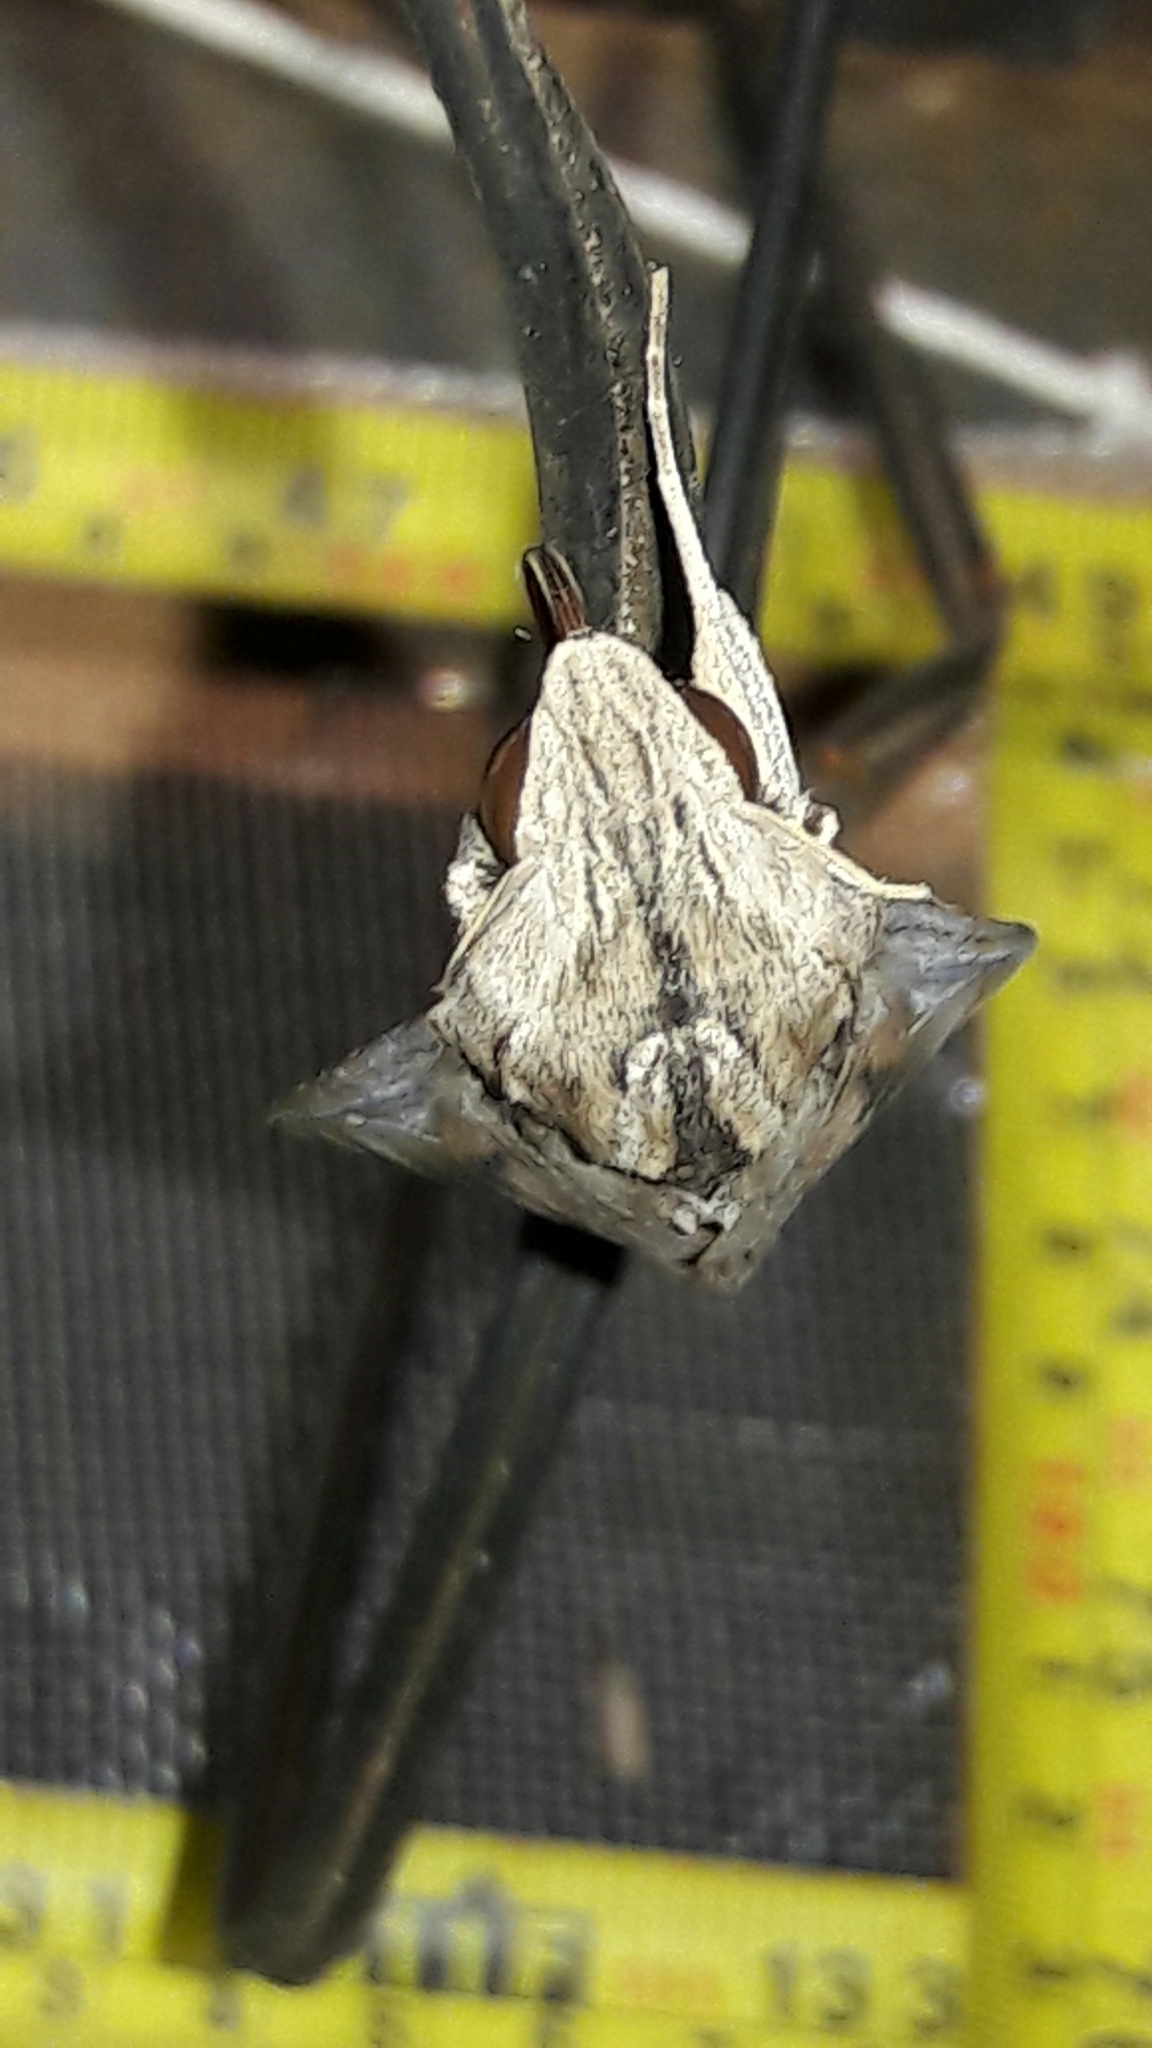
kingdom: Animalia
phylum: Arthropoda
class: Insecta
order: Lepidoptera
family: Sphingidae
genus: Erinnyis
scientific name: Erinnyis ello
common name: Ello sphinx
